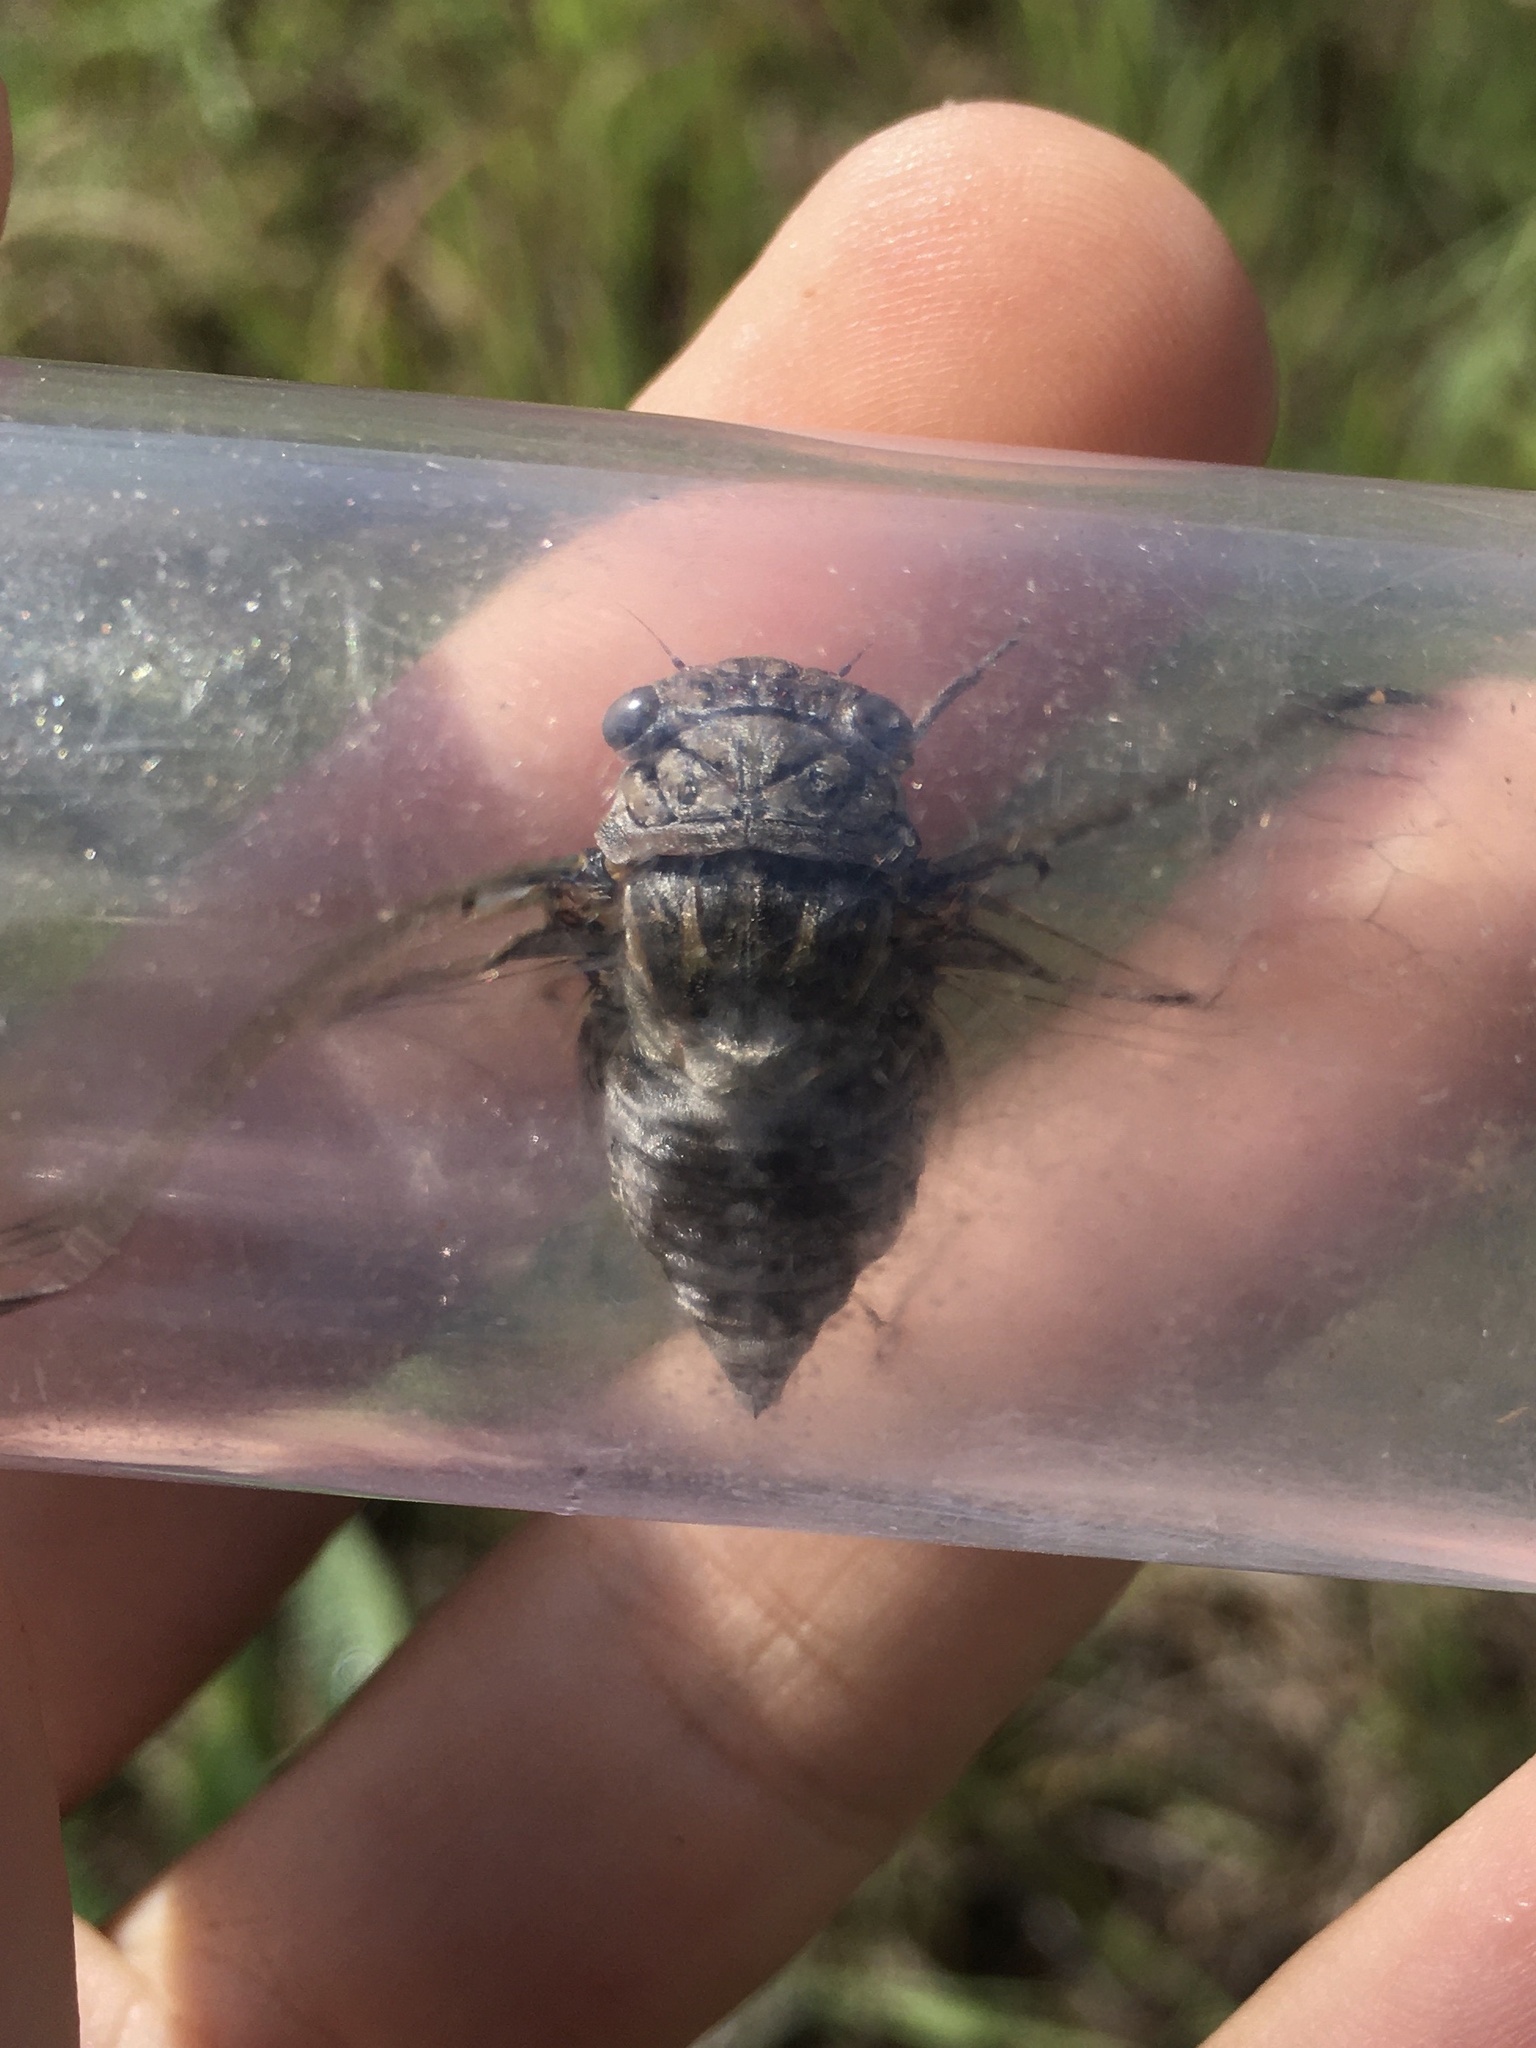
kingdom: Animalia
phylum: Arthropoda
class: Insecta
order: Hemiptera
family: Cicadidae
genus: Diceroprocta
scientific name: Diceroprocta vitripennis
